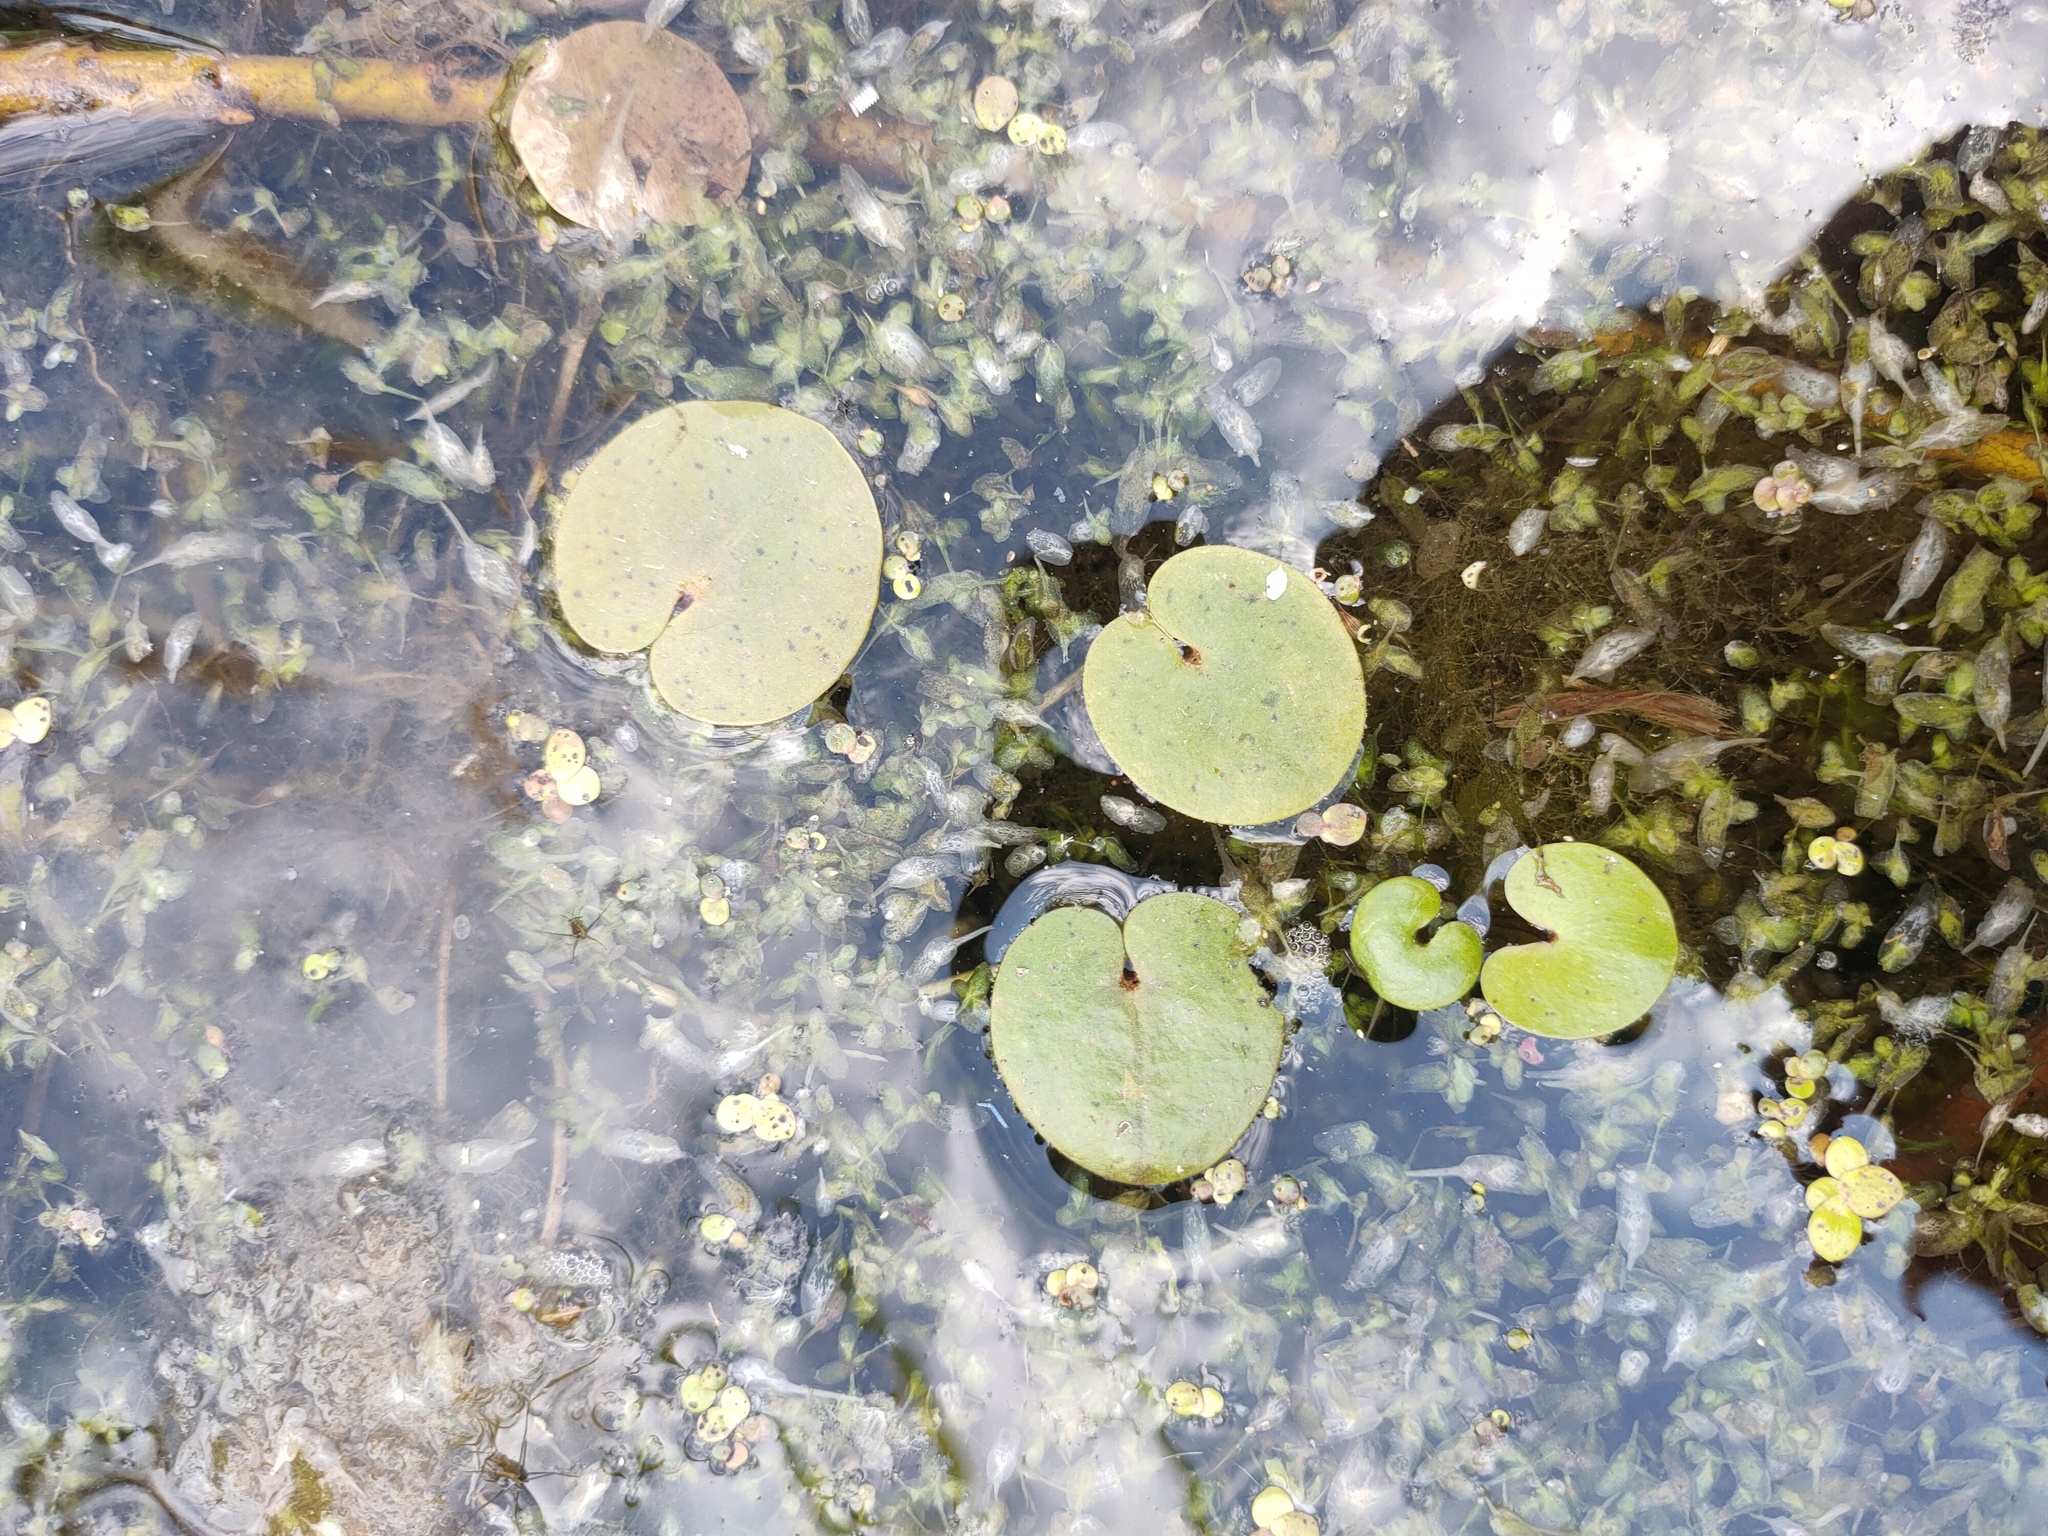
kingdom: Plantae
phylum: Tracheophyta
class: Liliopsida
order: Alismatales
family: Hydrocharitaceae
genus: Hydrocharis
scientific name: Hydrocharis morsus-ranae
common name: Frogbit
